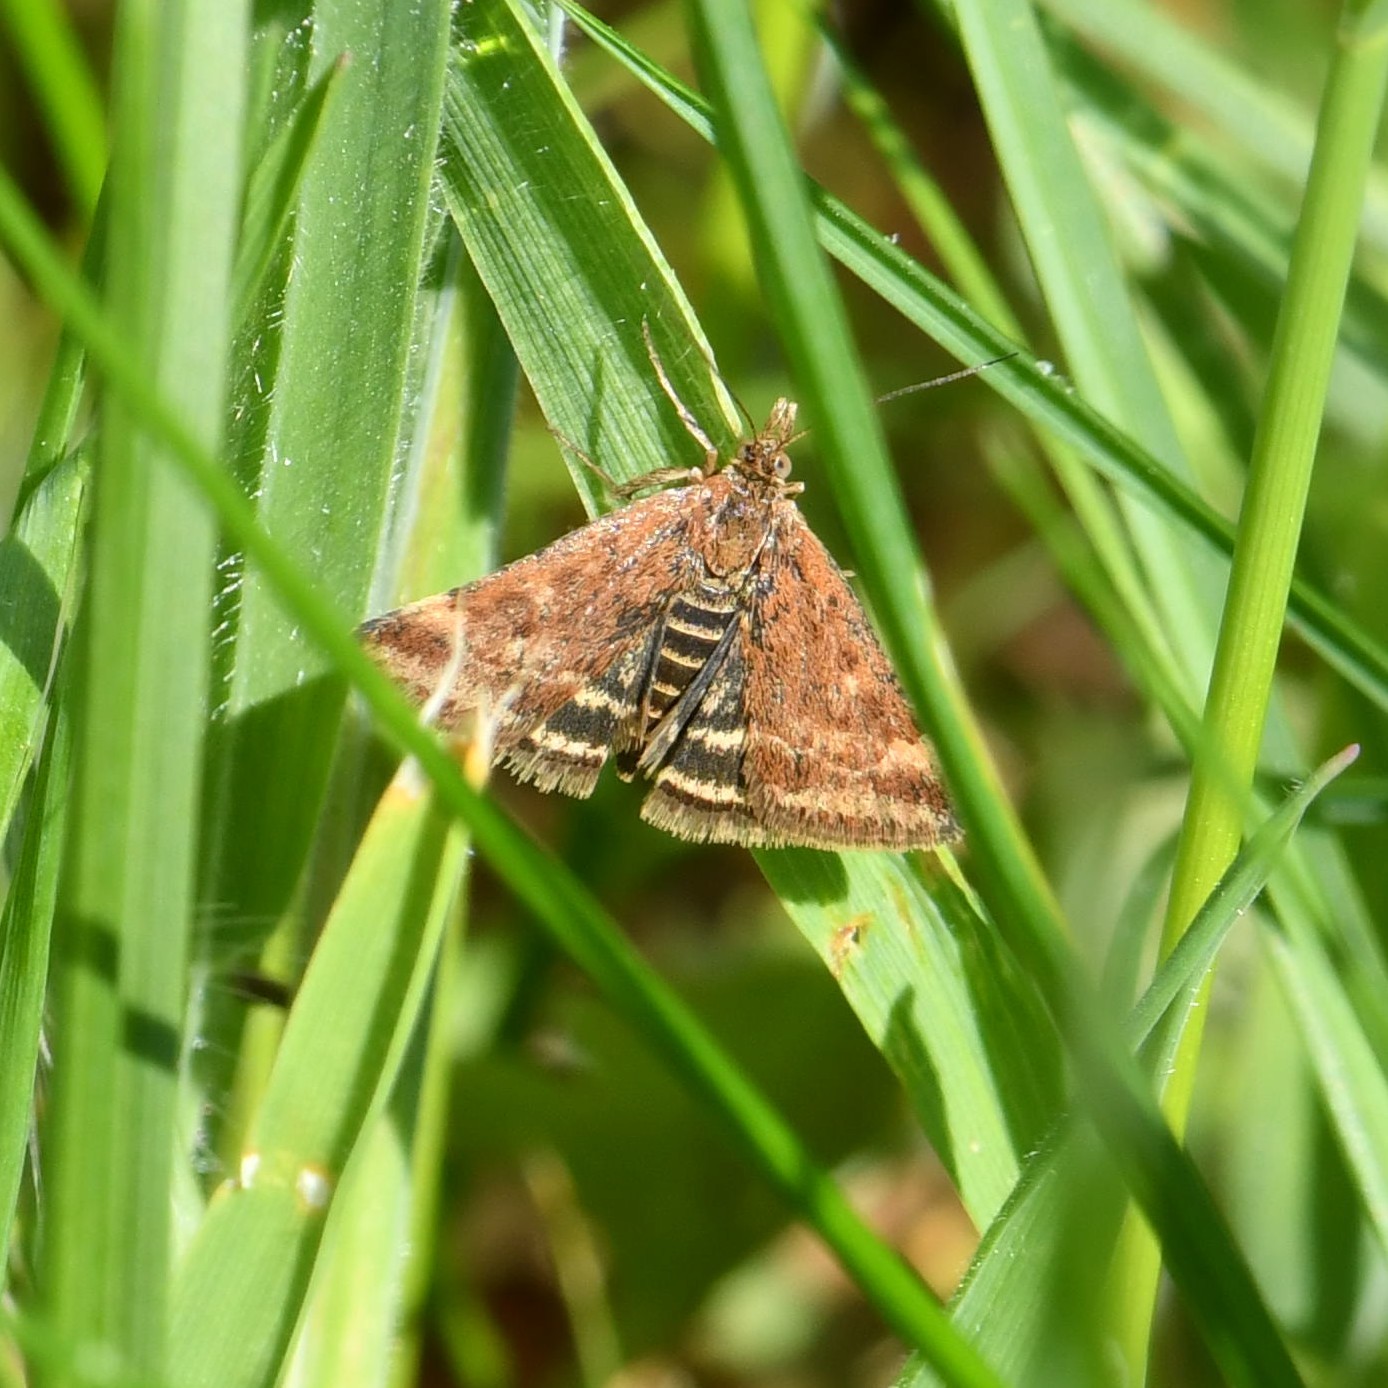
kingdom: Animalia
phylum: Arthropoda
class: Insecta
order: Lepidoptera
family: Crambidae
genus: Pyrausta
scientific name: Pyrausta despicata
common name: Straw-barred pearl
